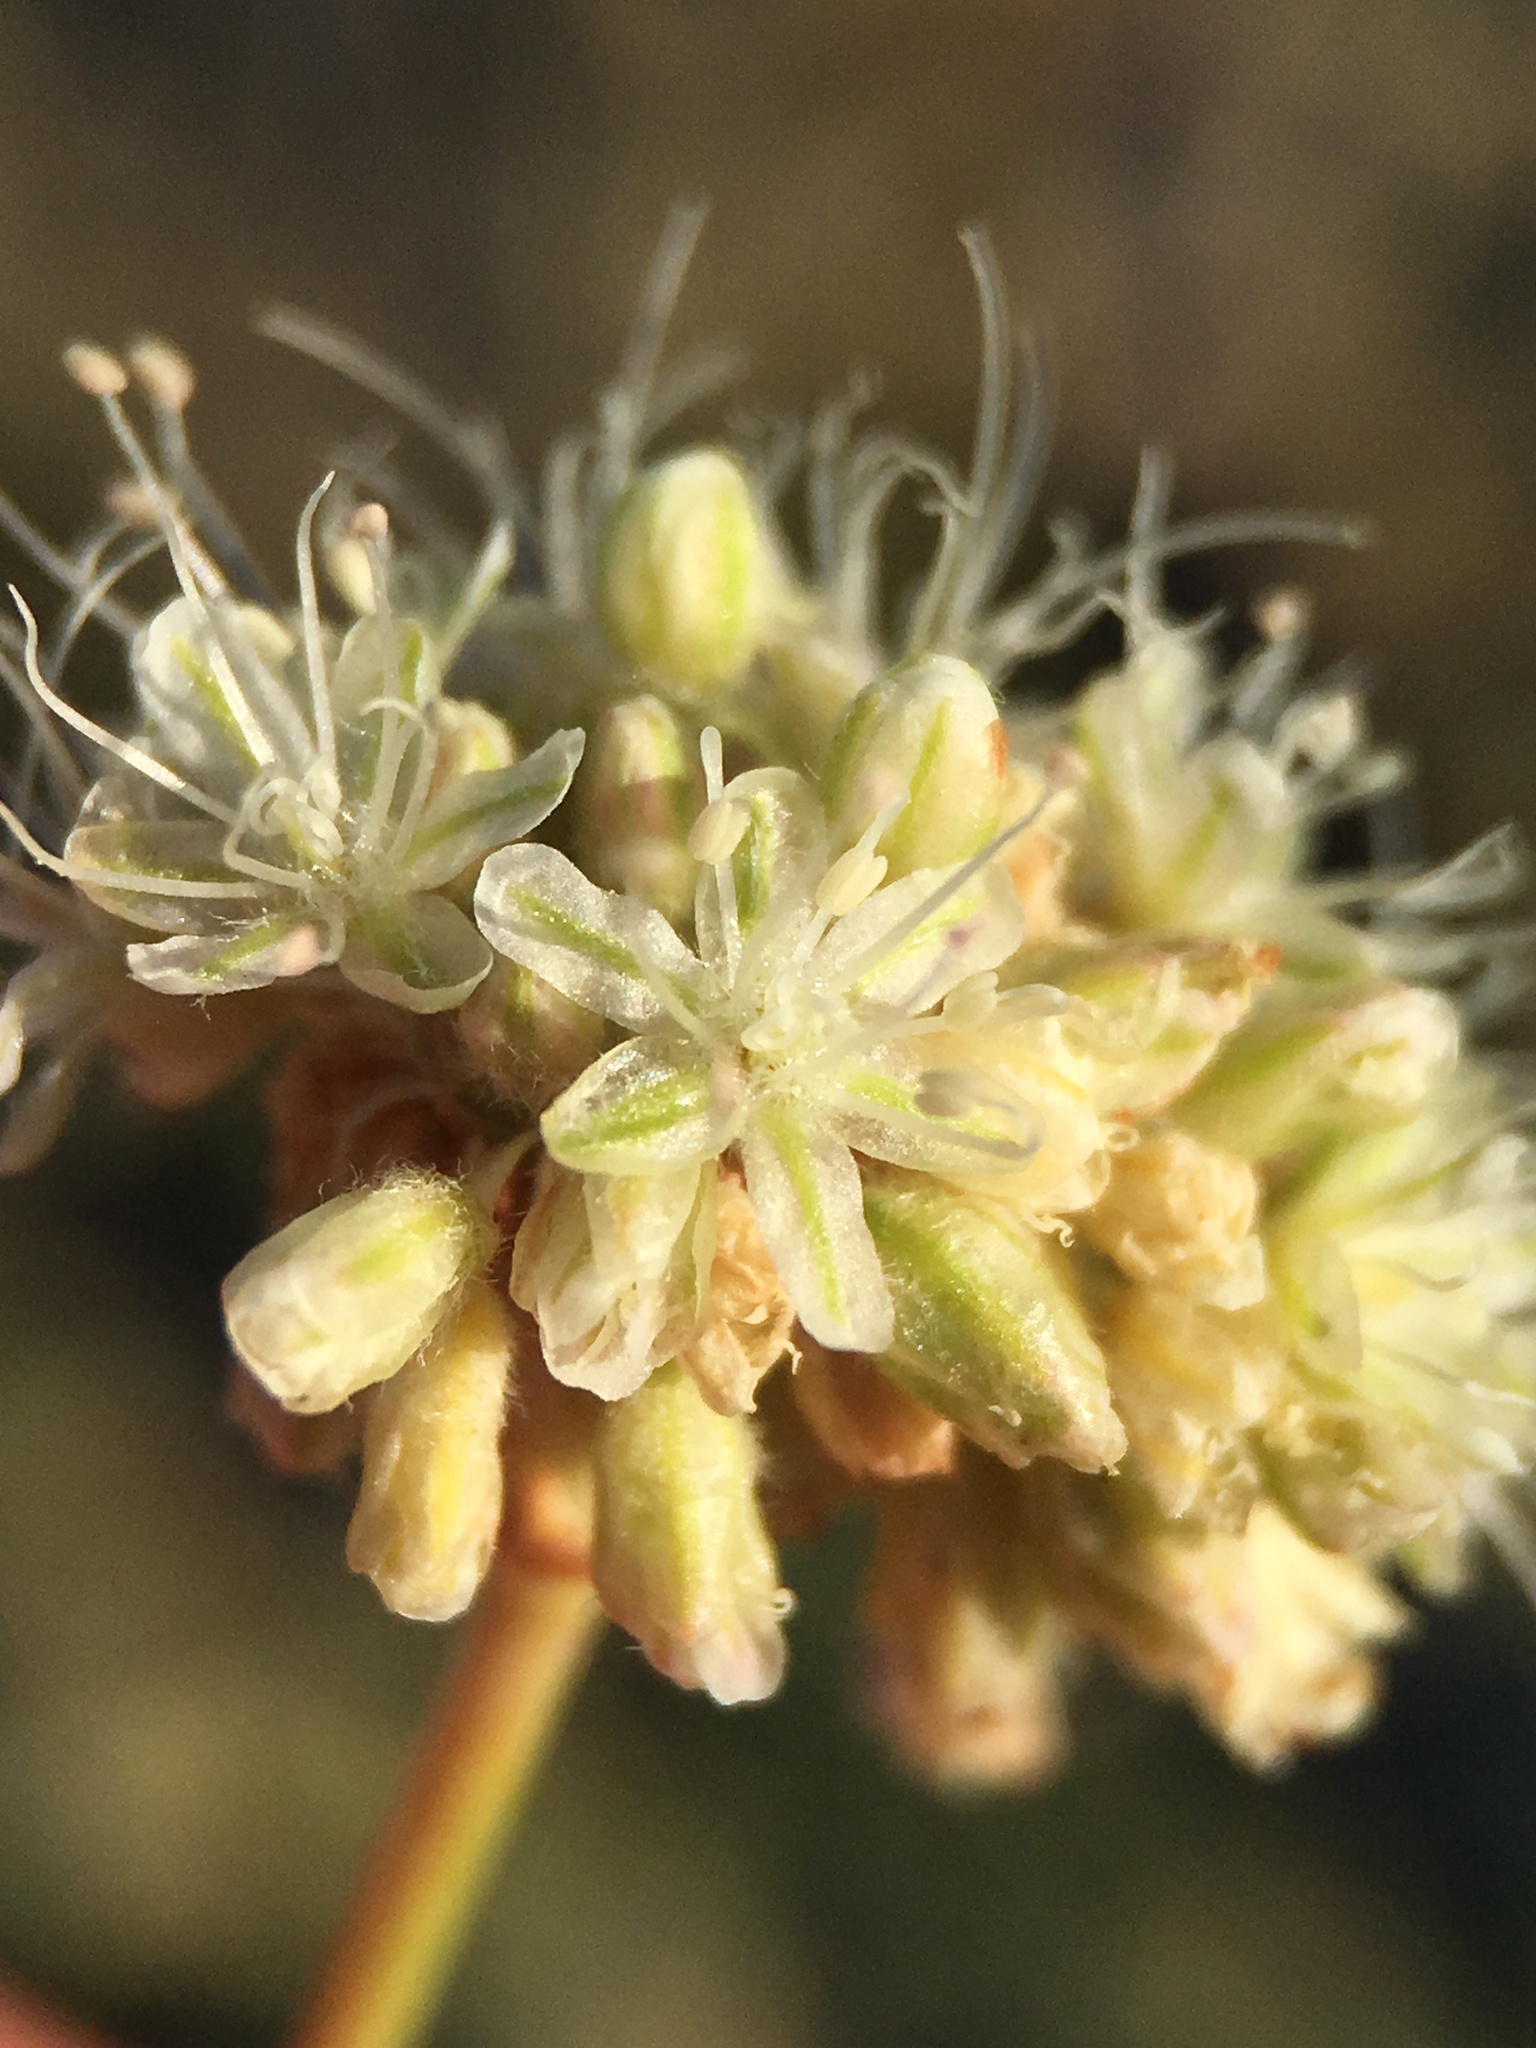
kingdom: Plantae
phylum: Tracheophyta
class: Magnoliopsida
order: Caryophyllales
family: Polygonaceae
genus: Eriogonum
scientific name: Eriogonum nudum
